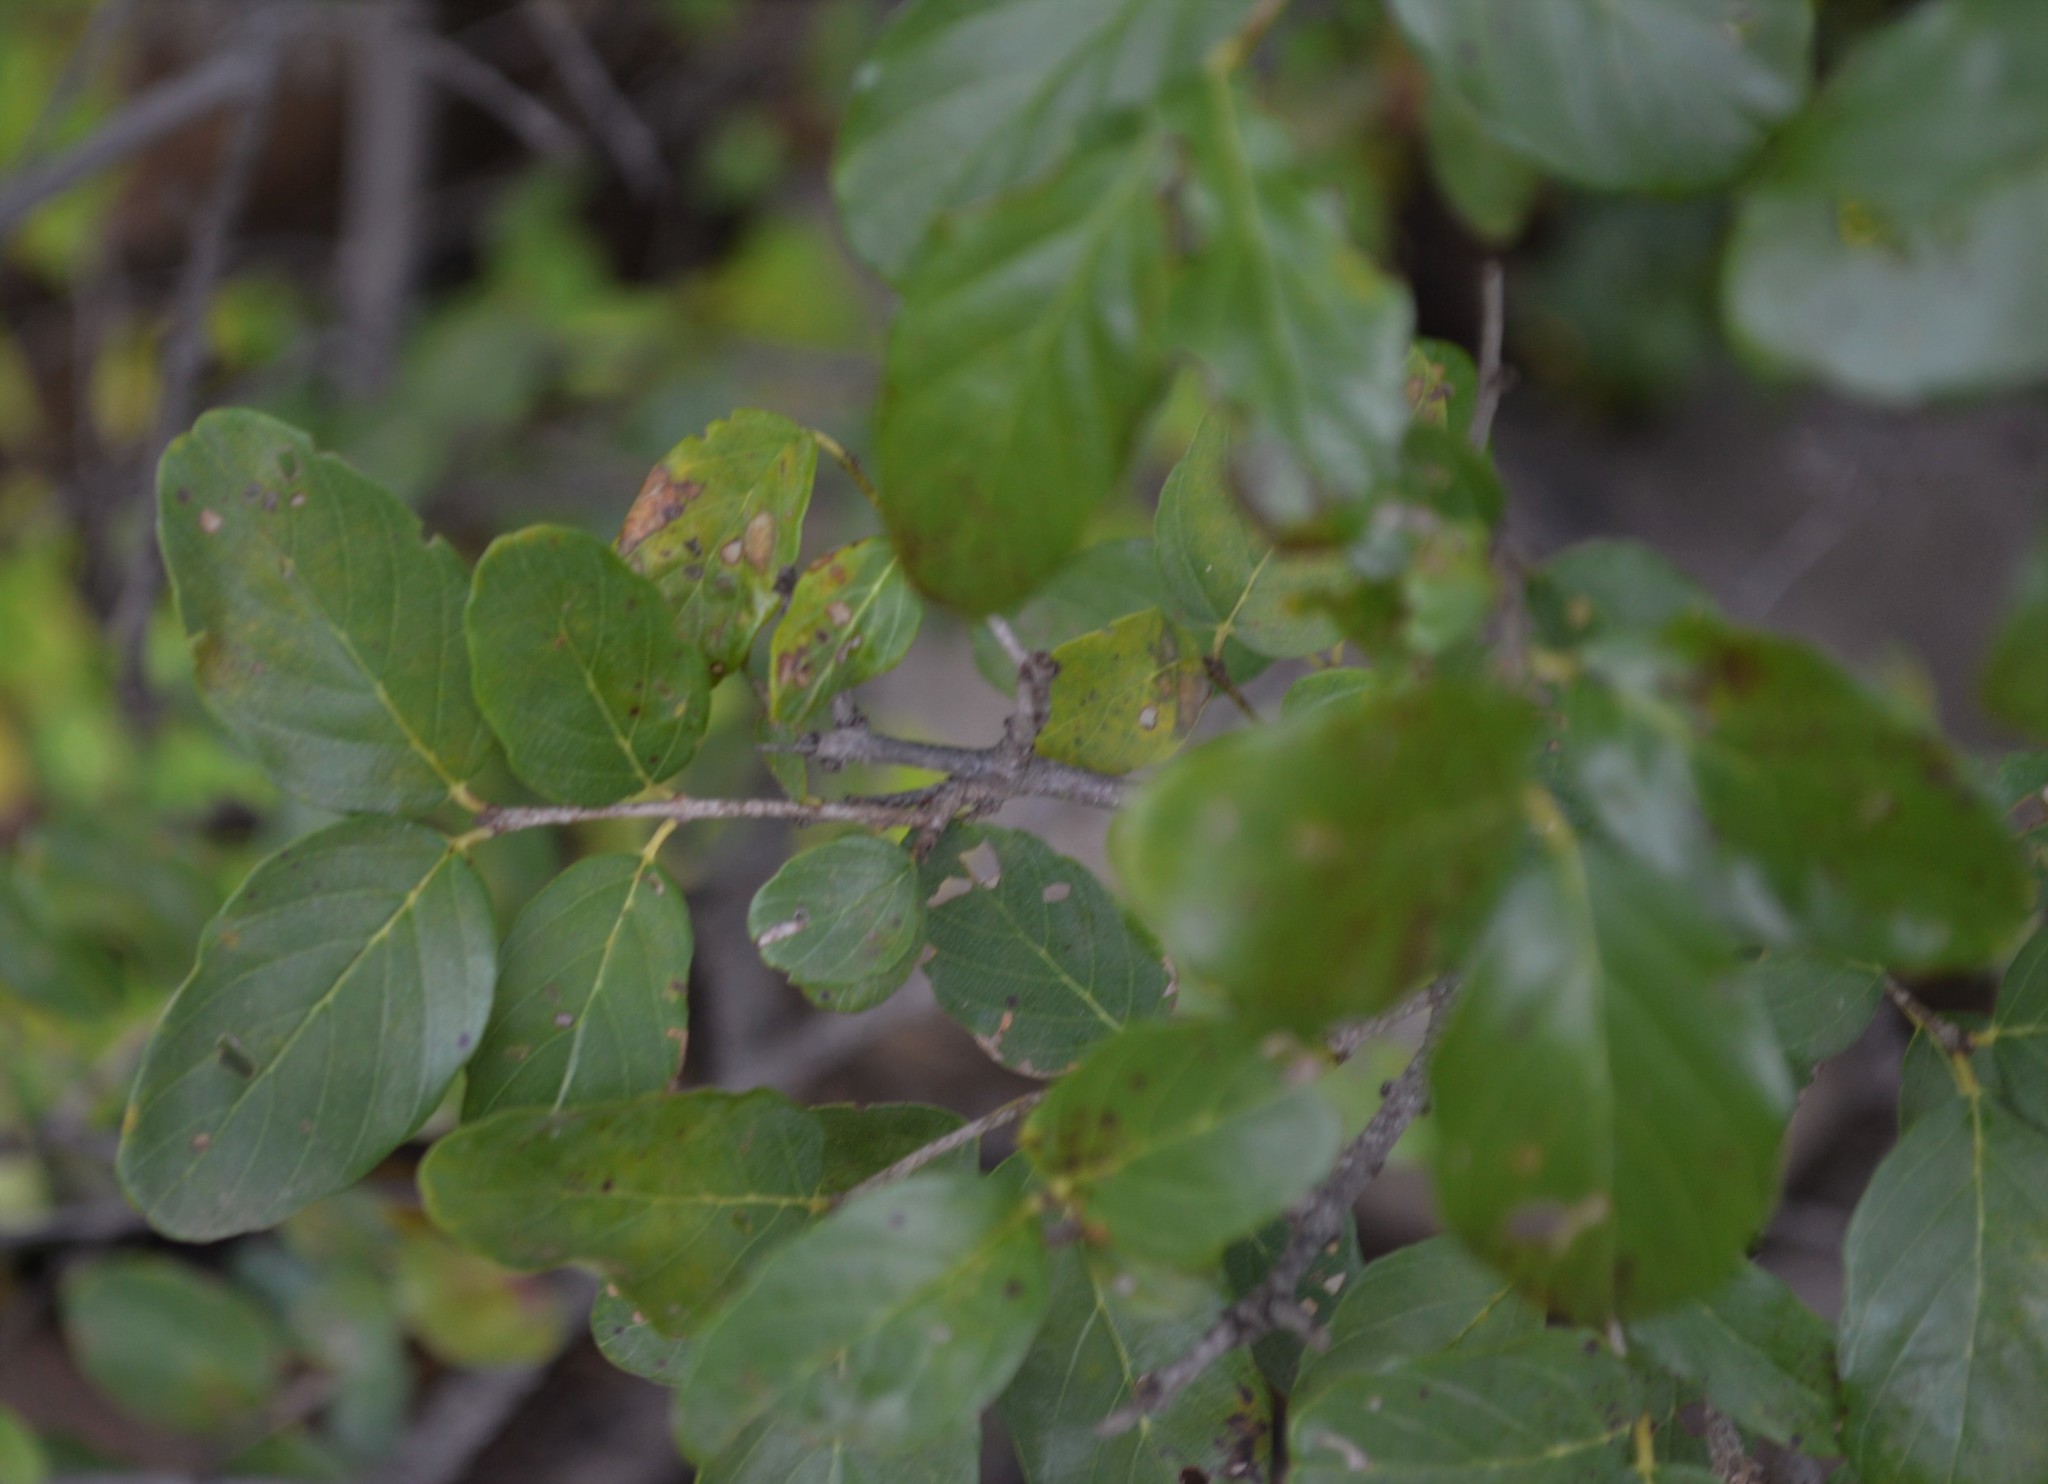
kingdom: Plantae
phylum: Tracheophyta
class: Magnoliopsida
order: Rosales
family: Rhamnaceae
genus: Phyllogeiton
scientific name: Phyllogeiton zeyheri
